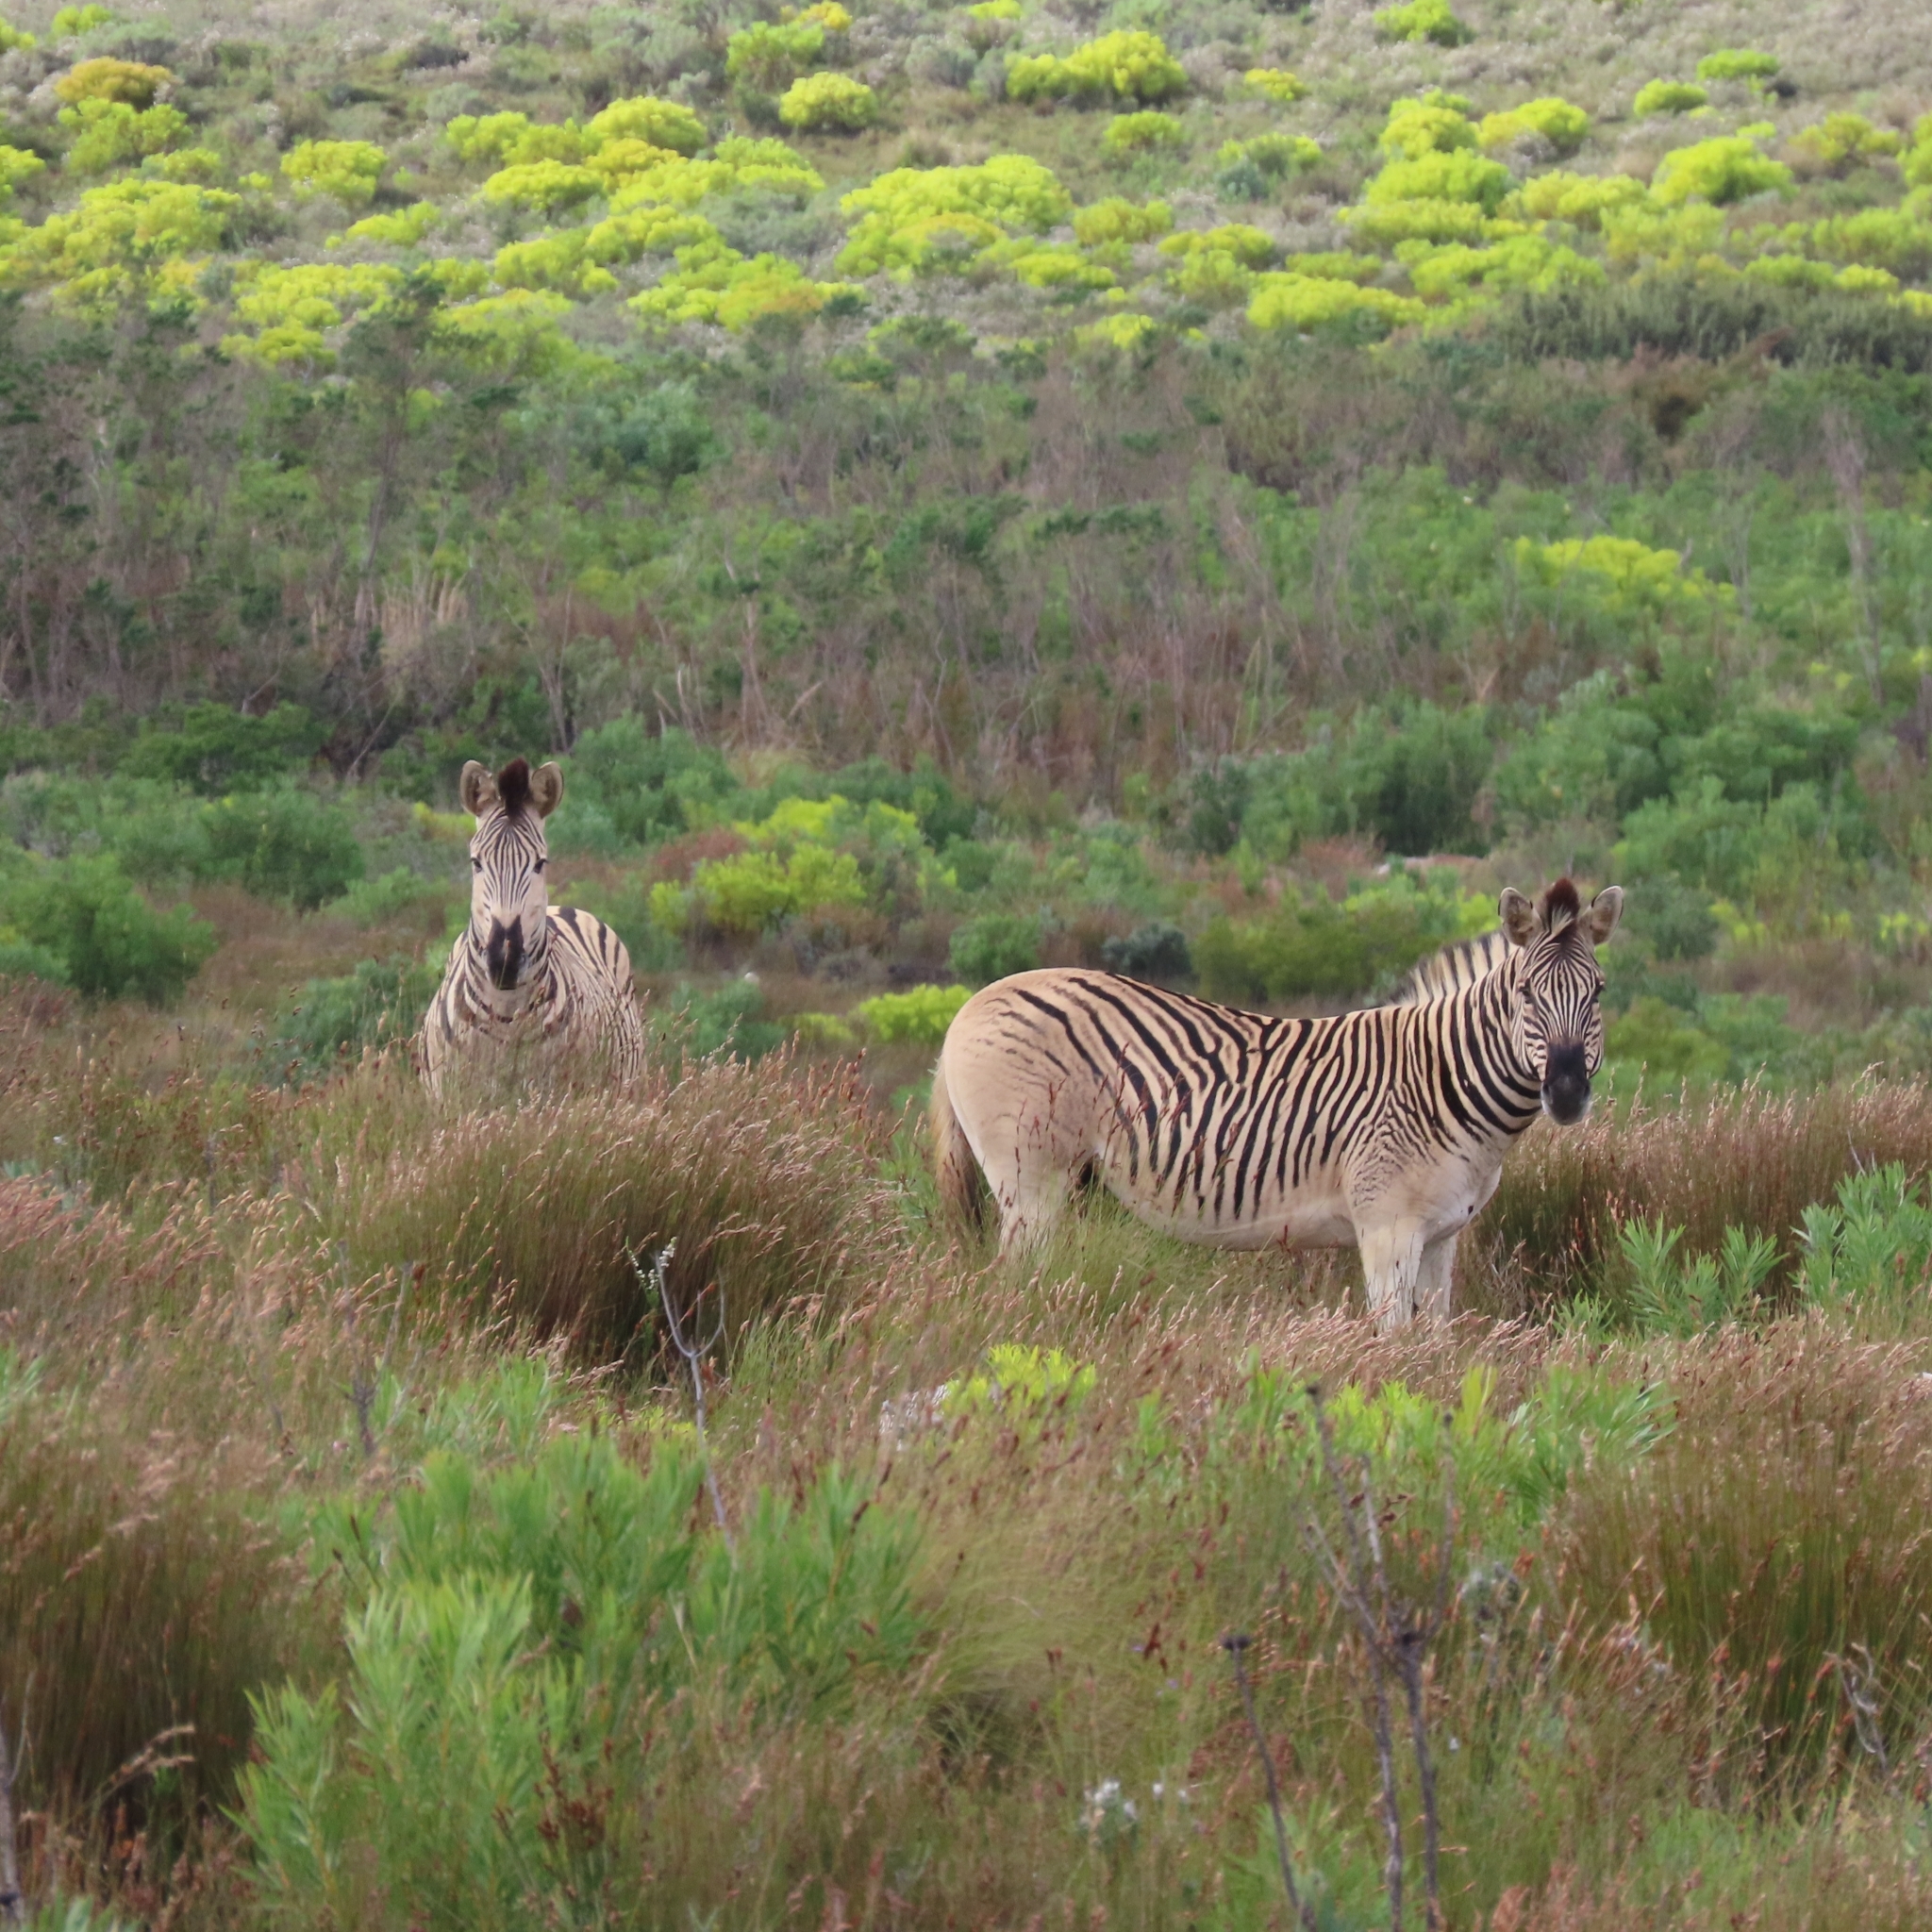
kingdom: Animalia
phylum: Chordata
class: Mammalia
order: Perissodactyla
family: Equidae
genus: Equus
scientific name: Equus quagga
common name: Plains zebra
